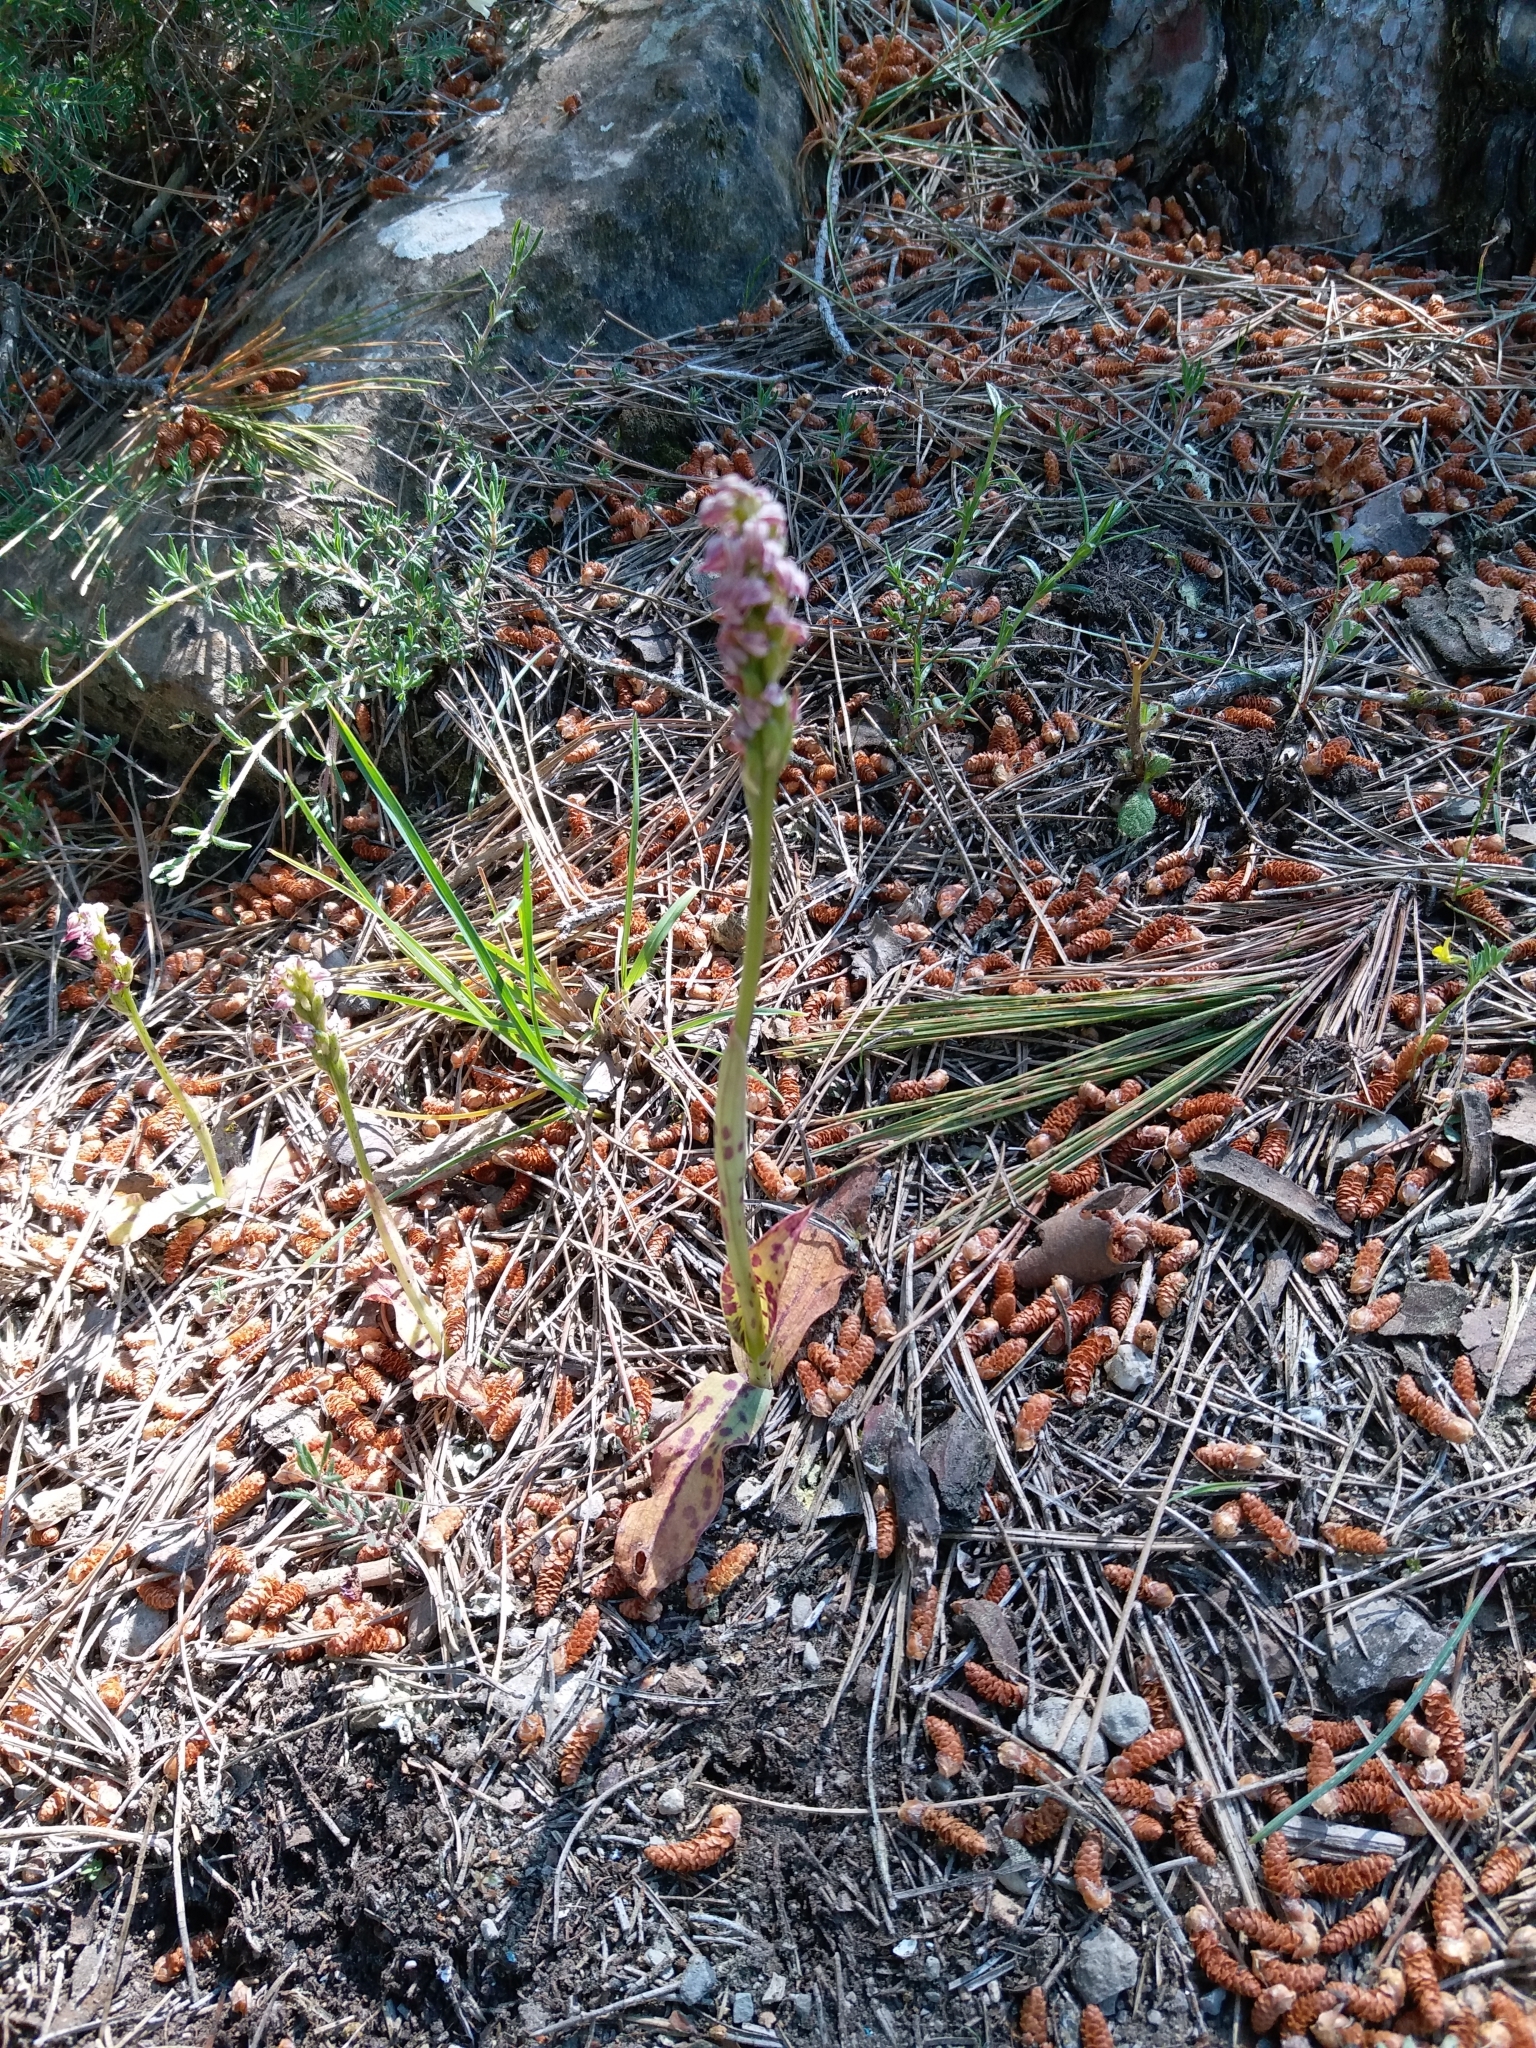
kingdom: Plantae
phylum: Tracheophyta
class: Liliopsida
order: Asparagales
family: Orchidaceae
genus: Neotinea
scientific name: Neotinea maculata
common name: Dense-flowered orchid
